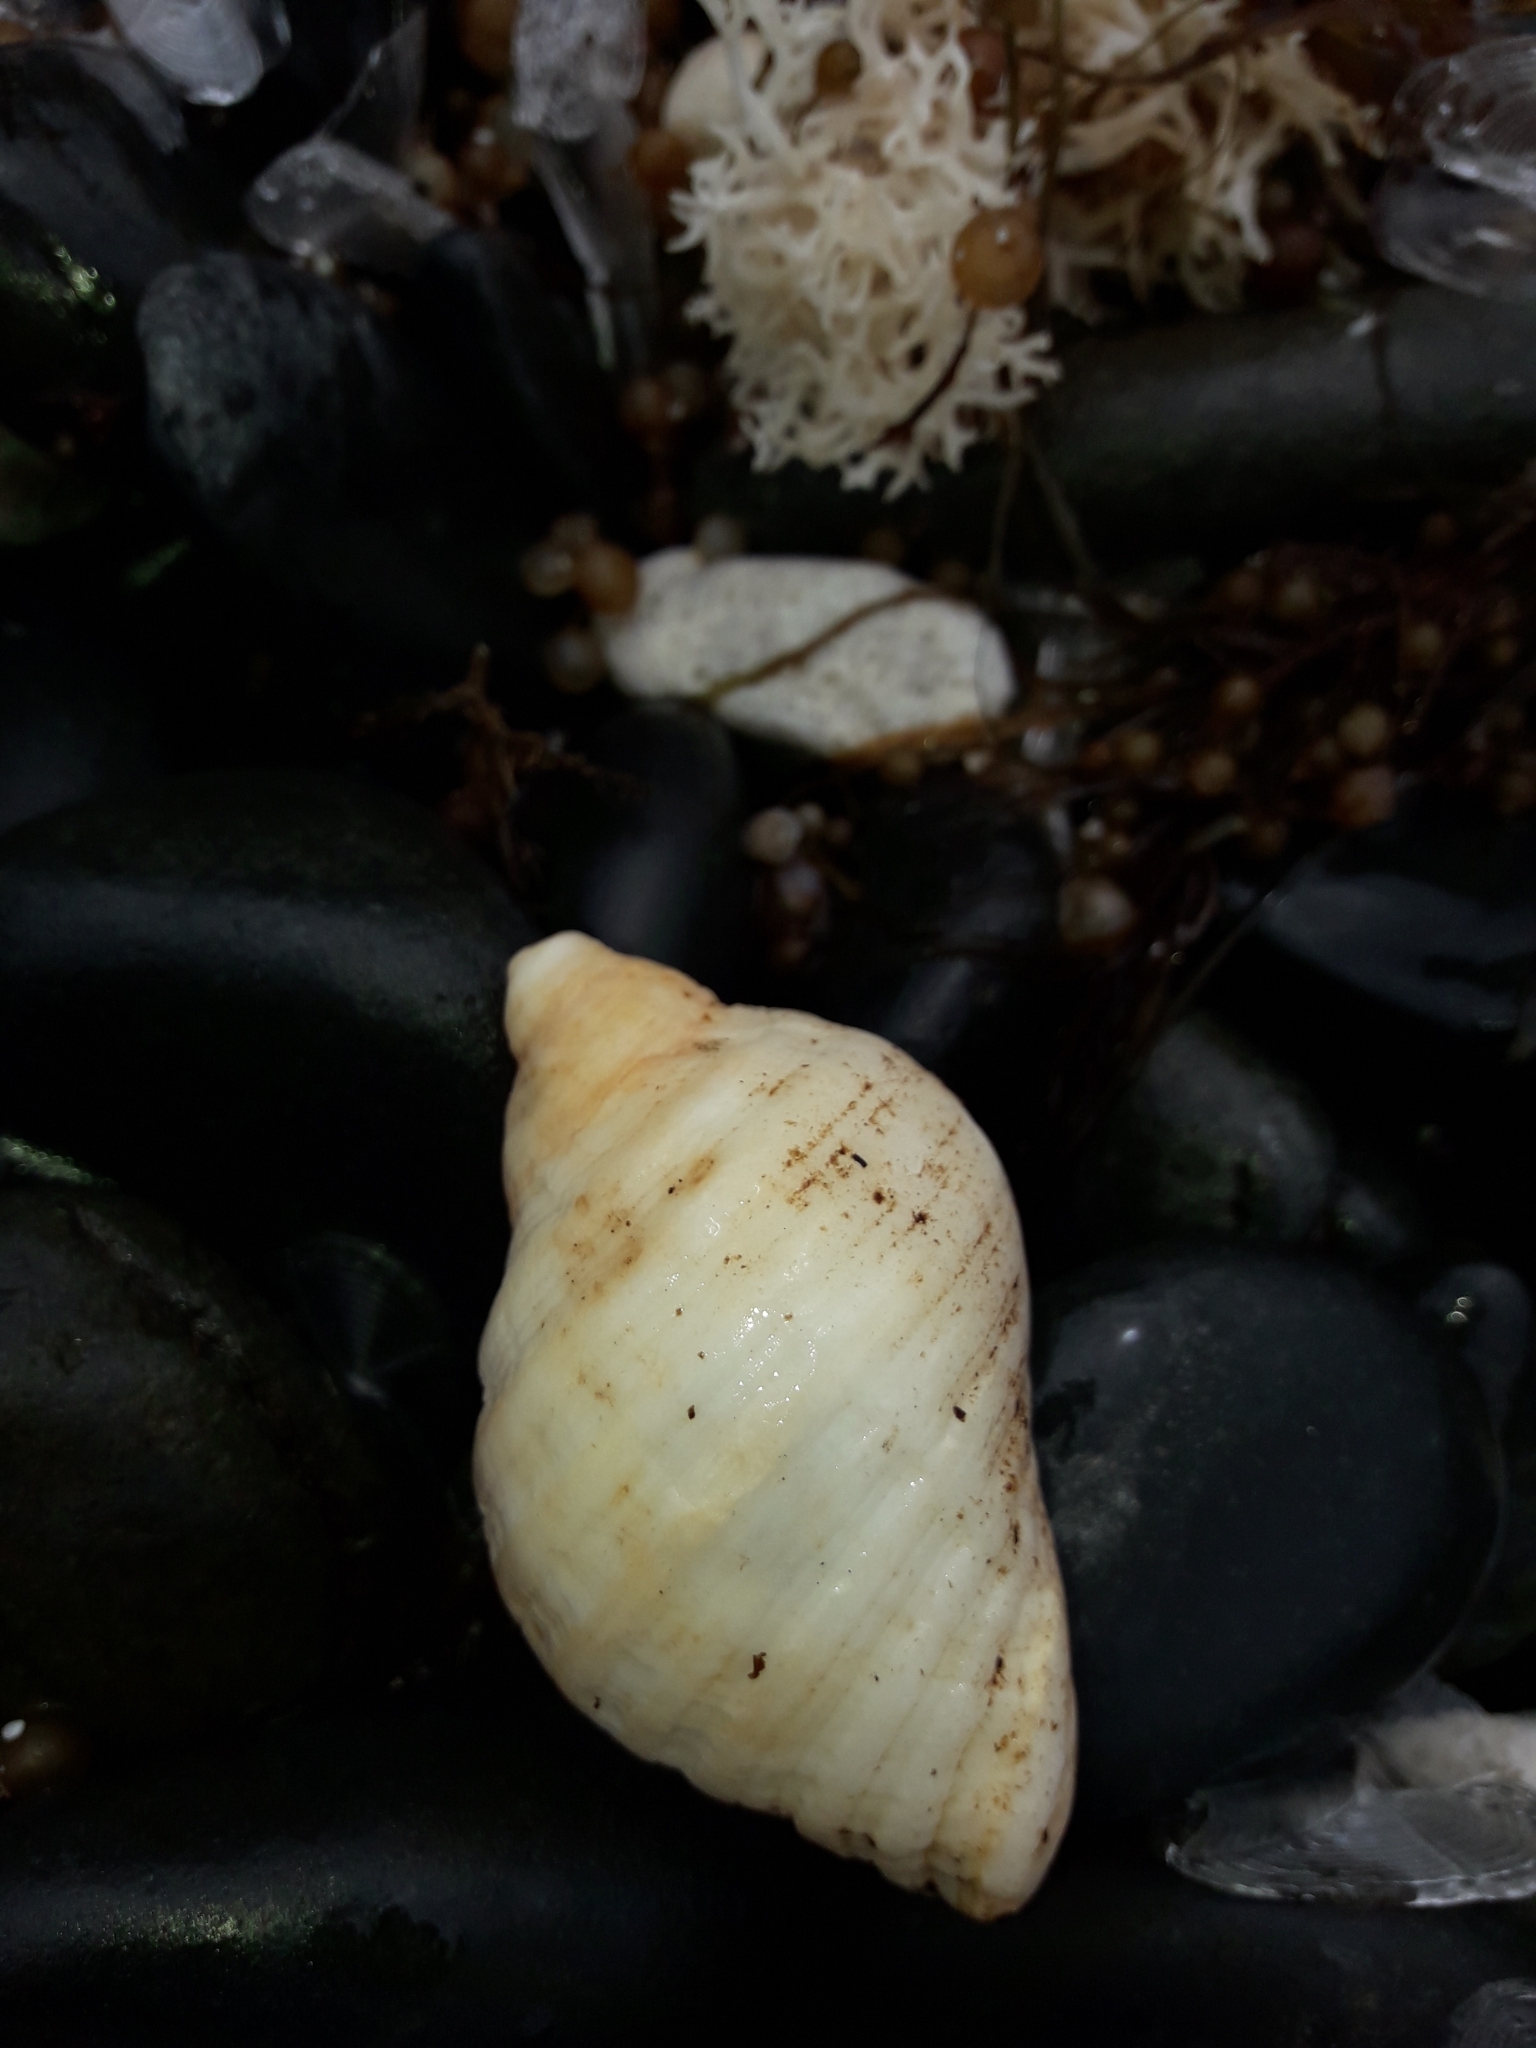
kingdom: Animalia
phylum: Mollusca
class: Gastropoda
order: Neogastropoda
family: Muricidae
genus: Dicathais
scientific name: Dicathais orbita
